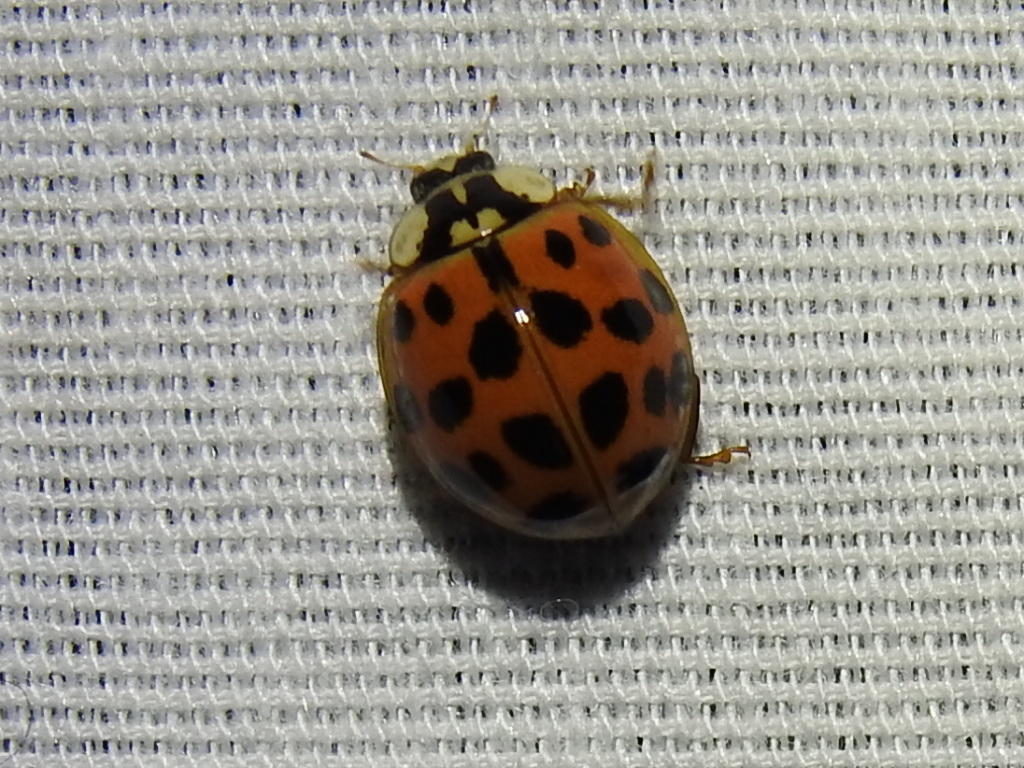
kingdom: Animalia
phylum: Arthropoda
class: Insecta
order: Coleoptera
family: Coccinellidae
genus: Harmonia
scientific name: Harmonia axyridis
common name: Harlequin ladybird
